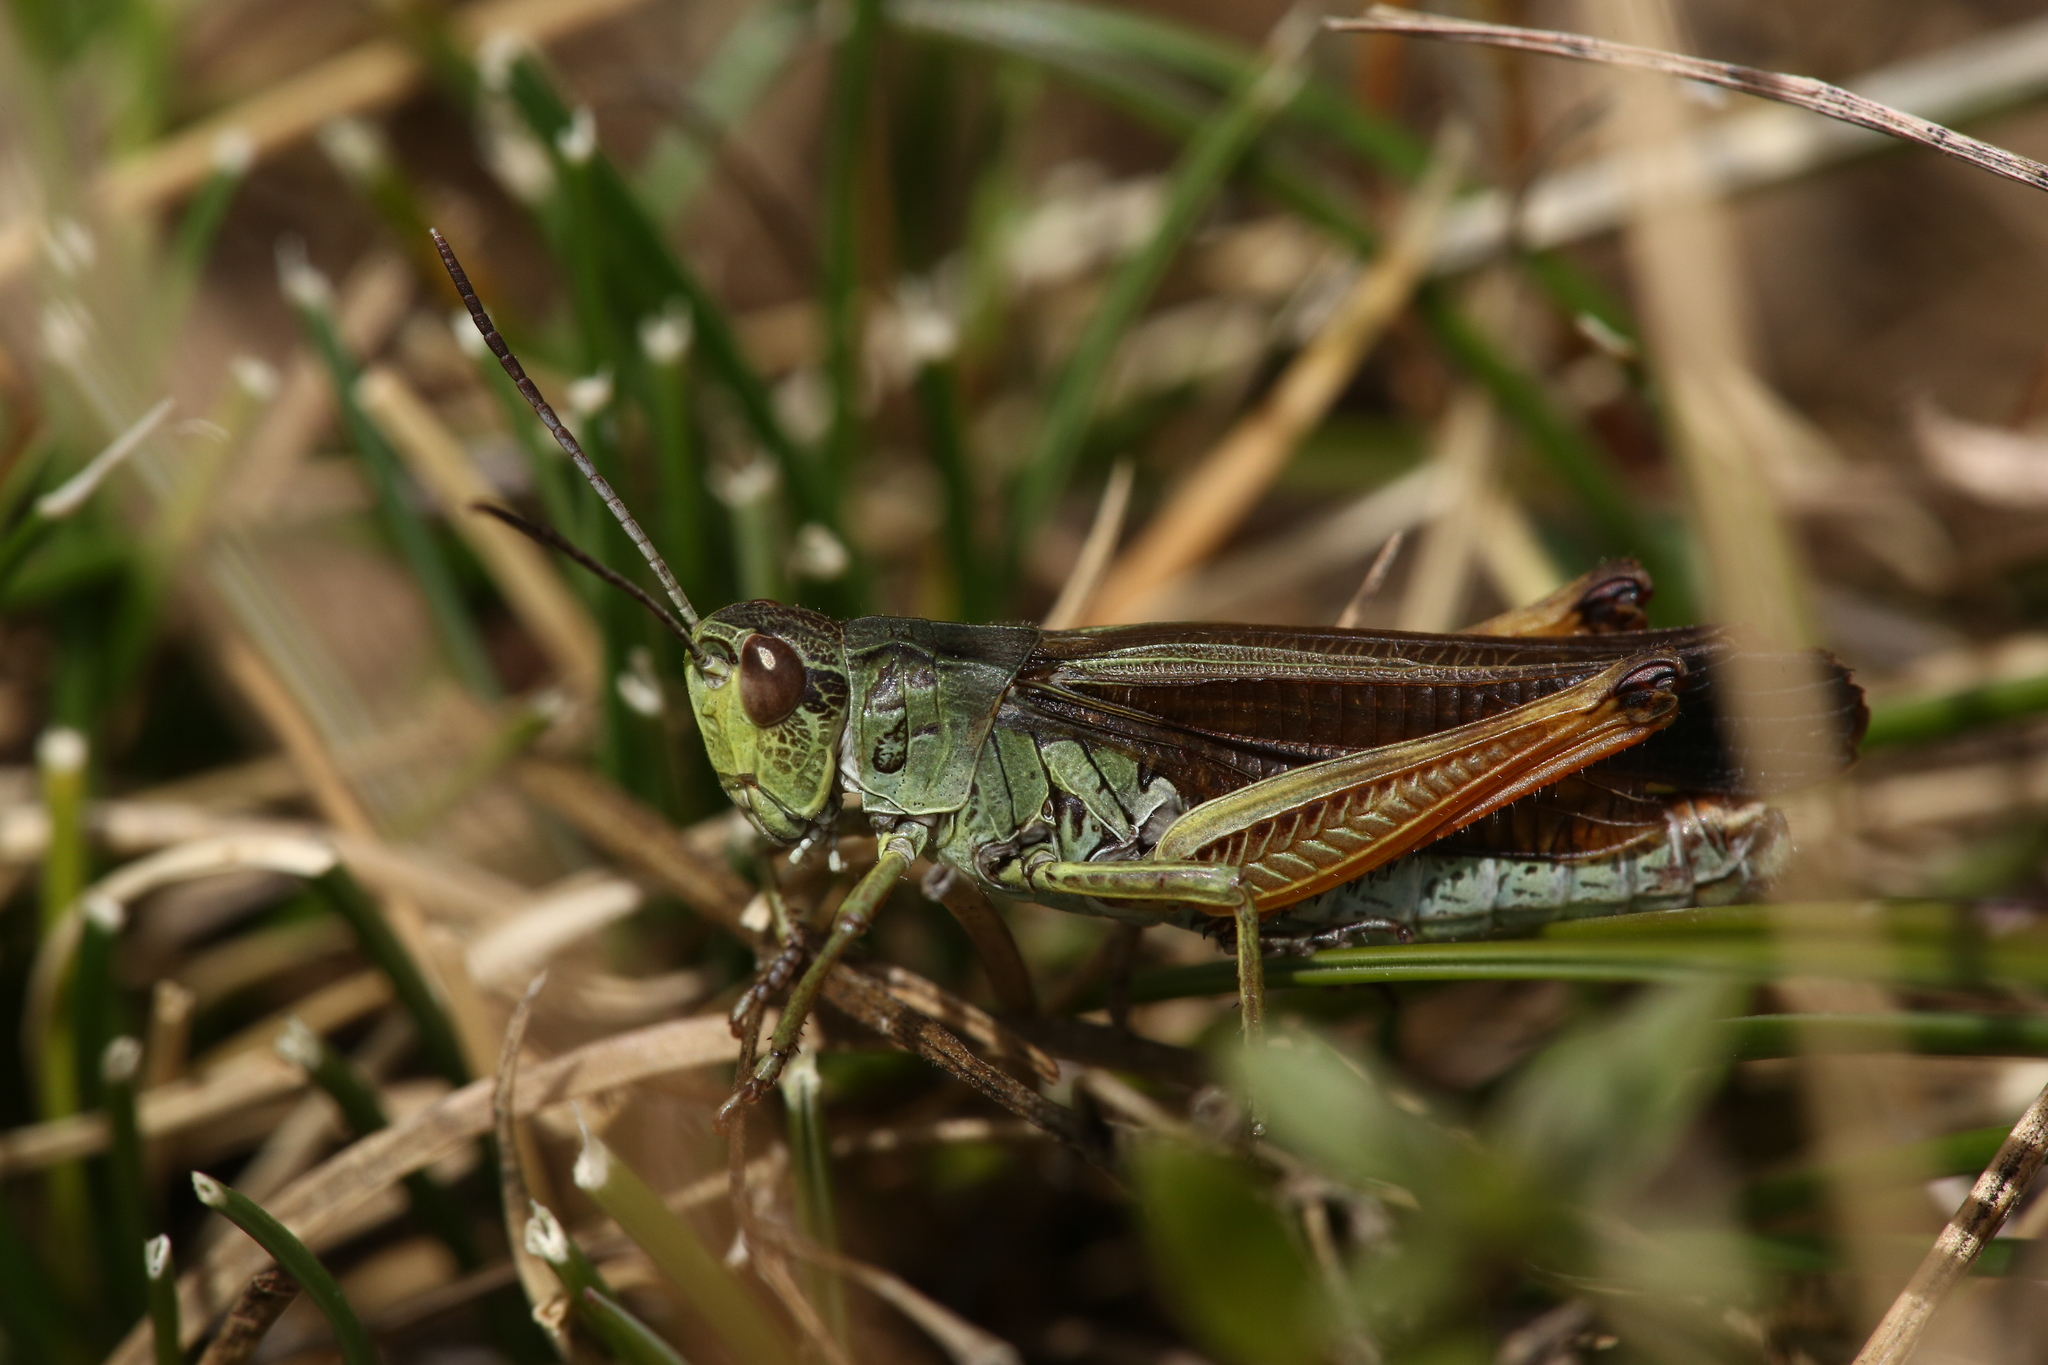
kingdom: Animalia
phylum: Arthropoda
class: Insecta
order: Orthoptera
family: Acrididae
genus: Stauroderus
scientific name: Stauroderus scalaris
